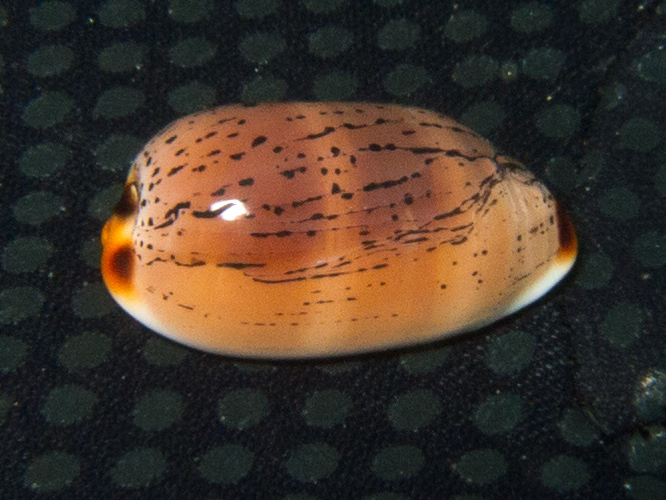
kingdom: Animalia
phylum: Mollusca
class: Gastropoda
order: Littorinimorpha
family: Cypraeidae
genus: Luria
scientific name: Luria isabella
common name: Isabell cowry
